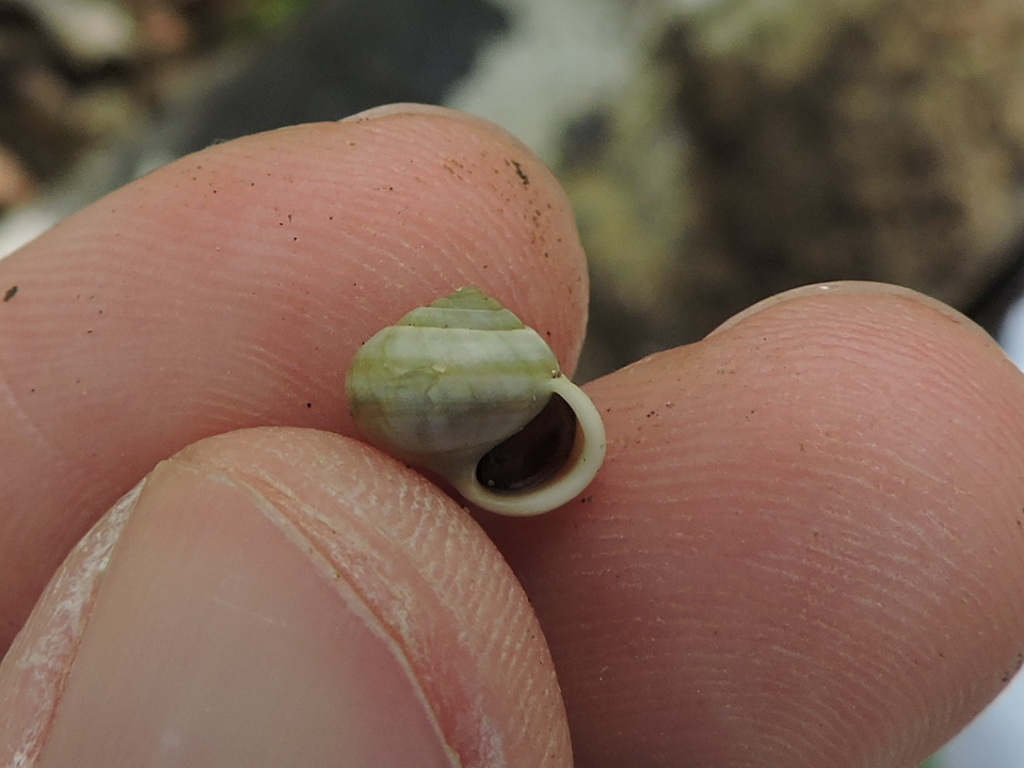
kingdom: Animalia
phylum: Mollusca
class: Gastropoda
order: Cycloneritida
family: Helicinidae
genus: Helicina
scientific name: Helicina orbiculata
